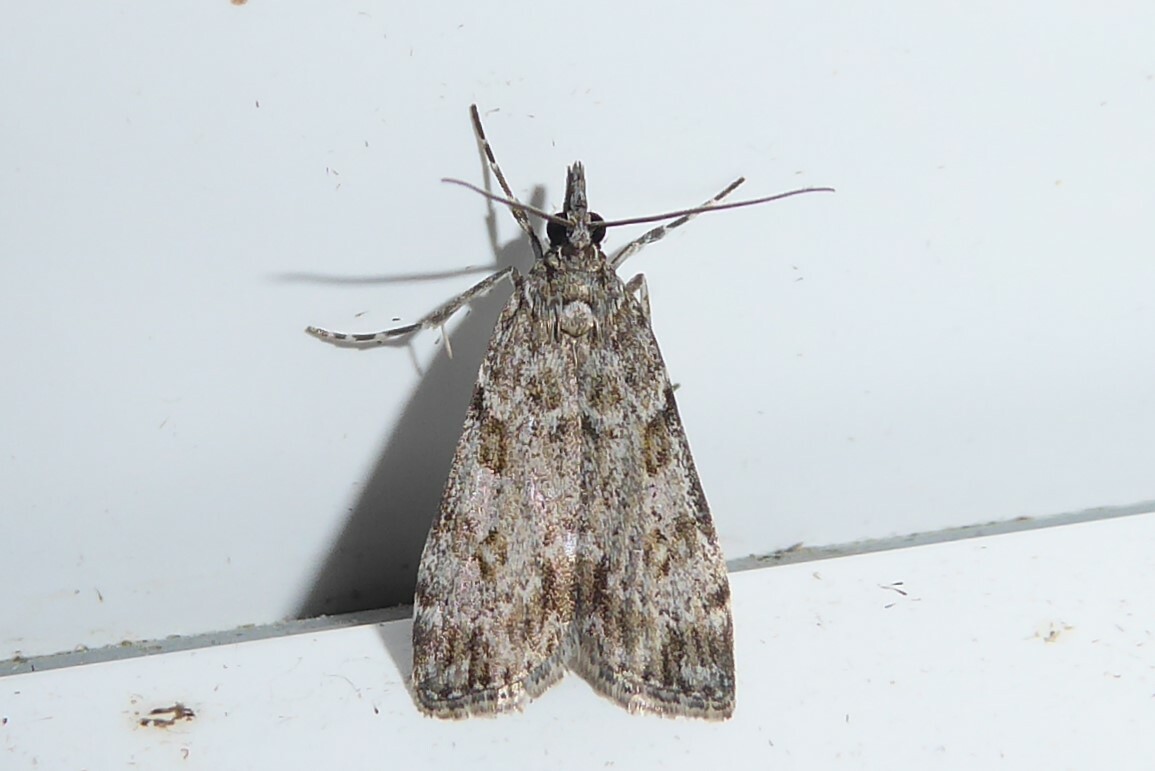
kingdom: Animalia
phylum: Arthropoda
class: Insecta
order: Lepidoptera
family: Crambidae
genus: Eudonia
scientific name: Eudonia cymatias
